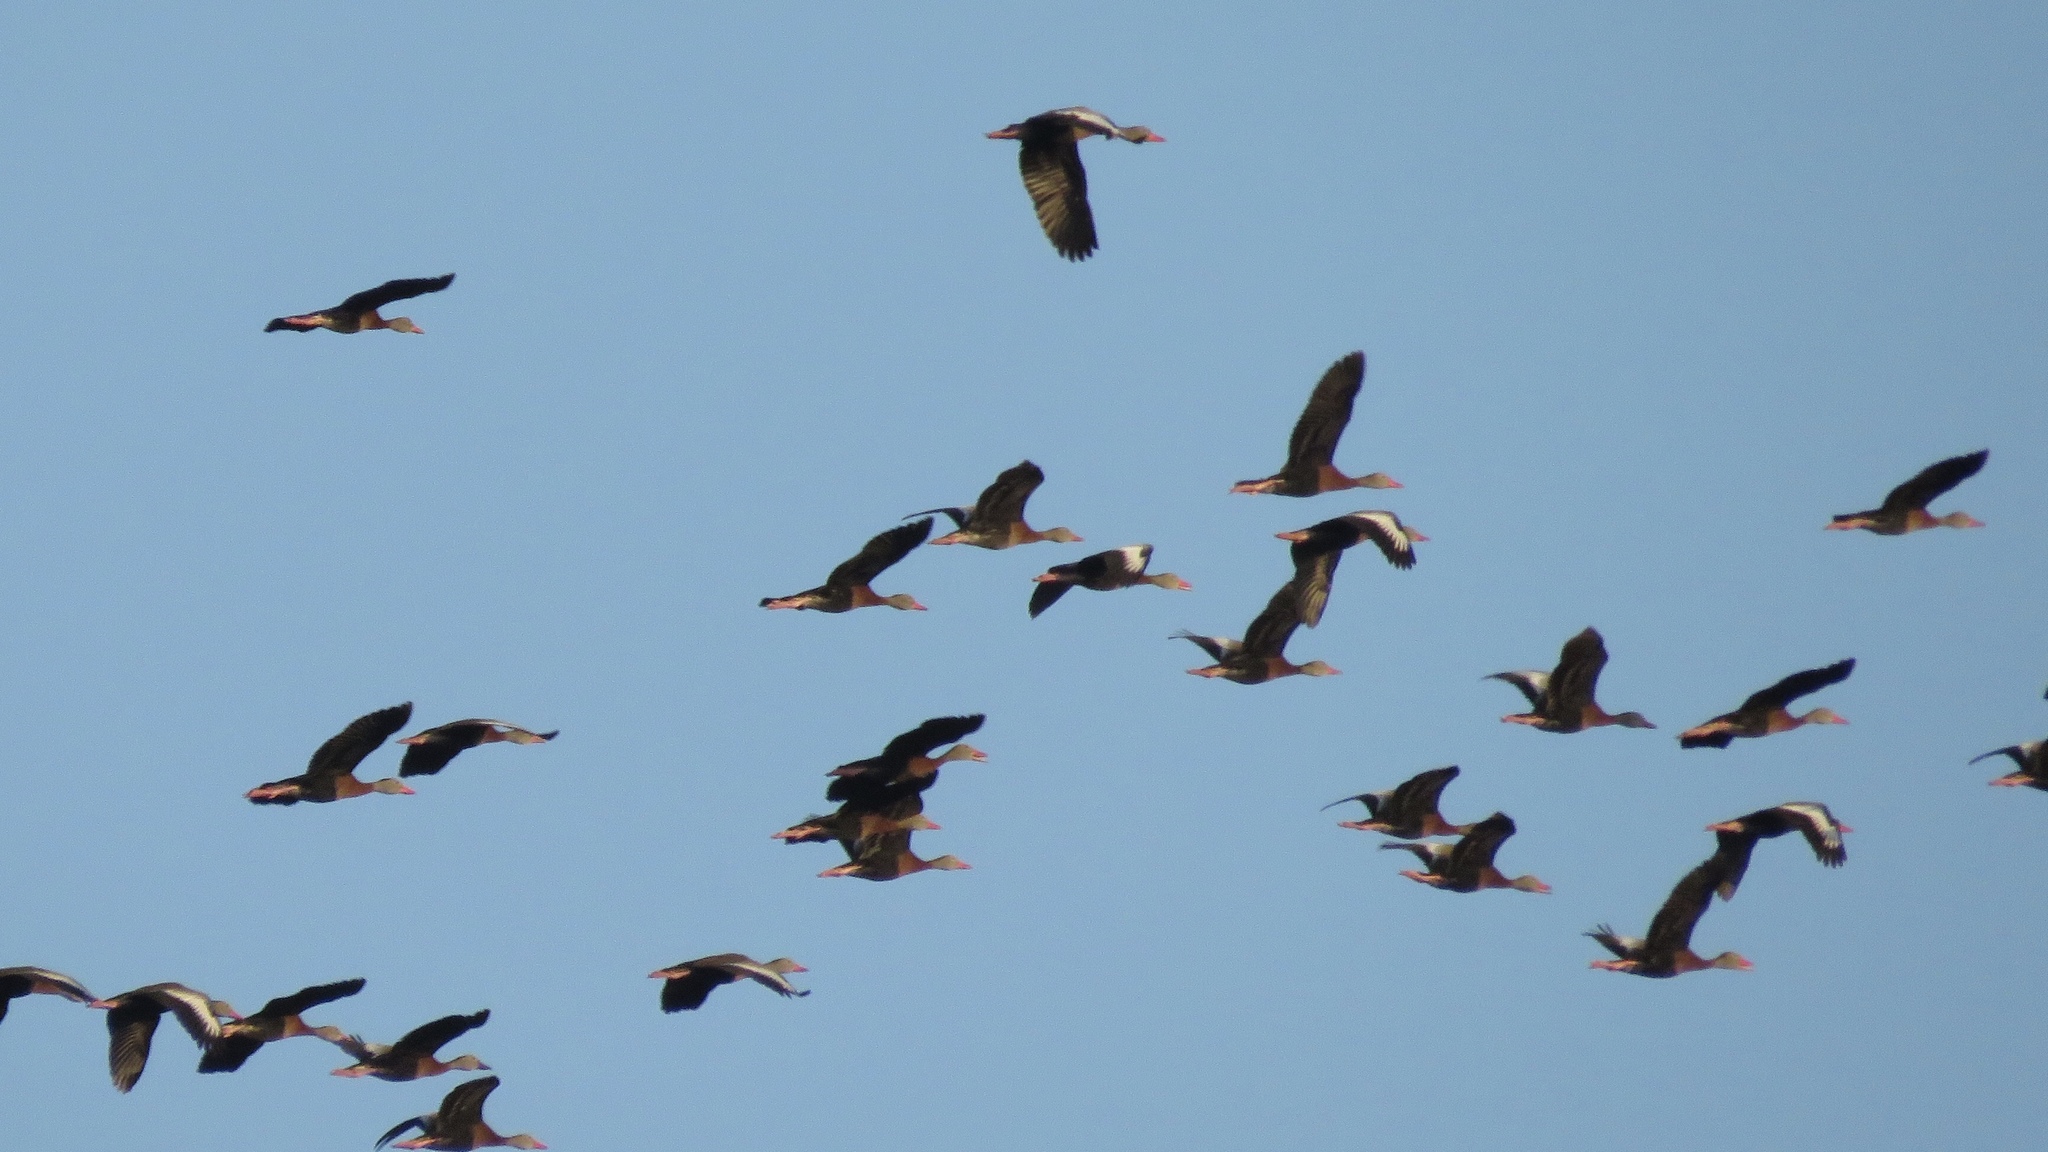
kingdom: Animalia
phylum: Chordata
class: Aves
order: Anseriformes
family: Anatidae
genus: Dendrocygna
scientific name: Dendrocygna autumnalis
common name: Black-bellied whistling duck
